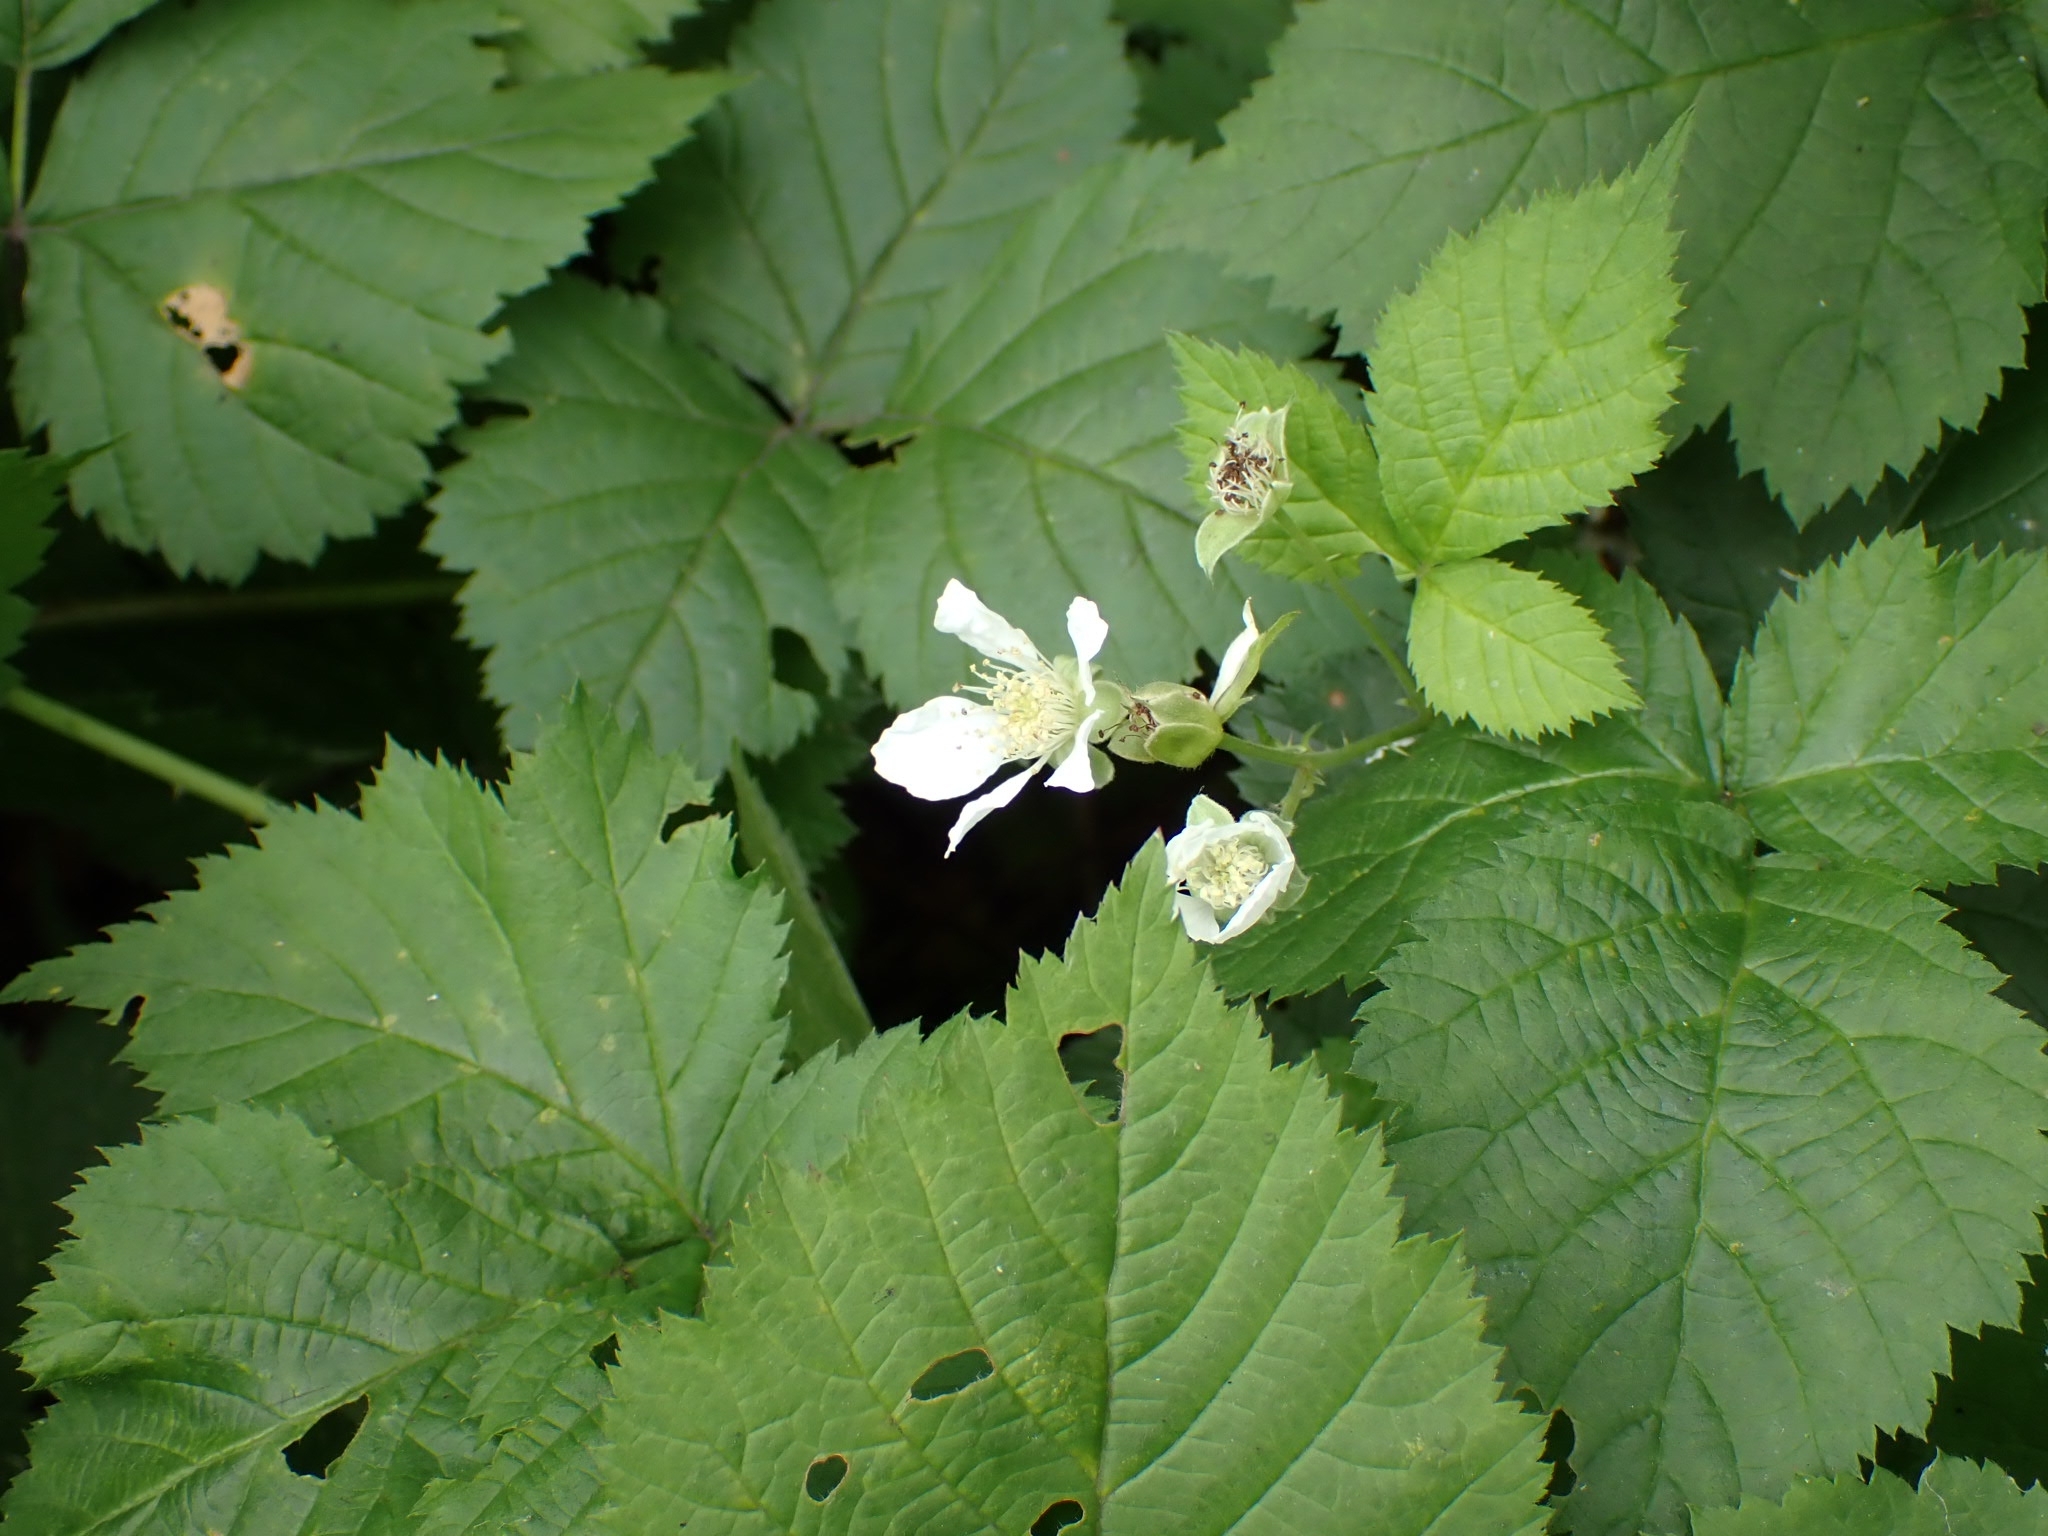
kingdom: Plantae
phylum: Tracheophyta
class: Magnoliopsida
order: Rosales
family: Rosaceae
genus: Rubus
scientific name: Rubus caesius
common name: Dewberry
